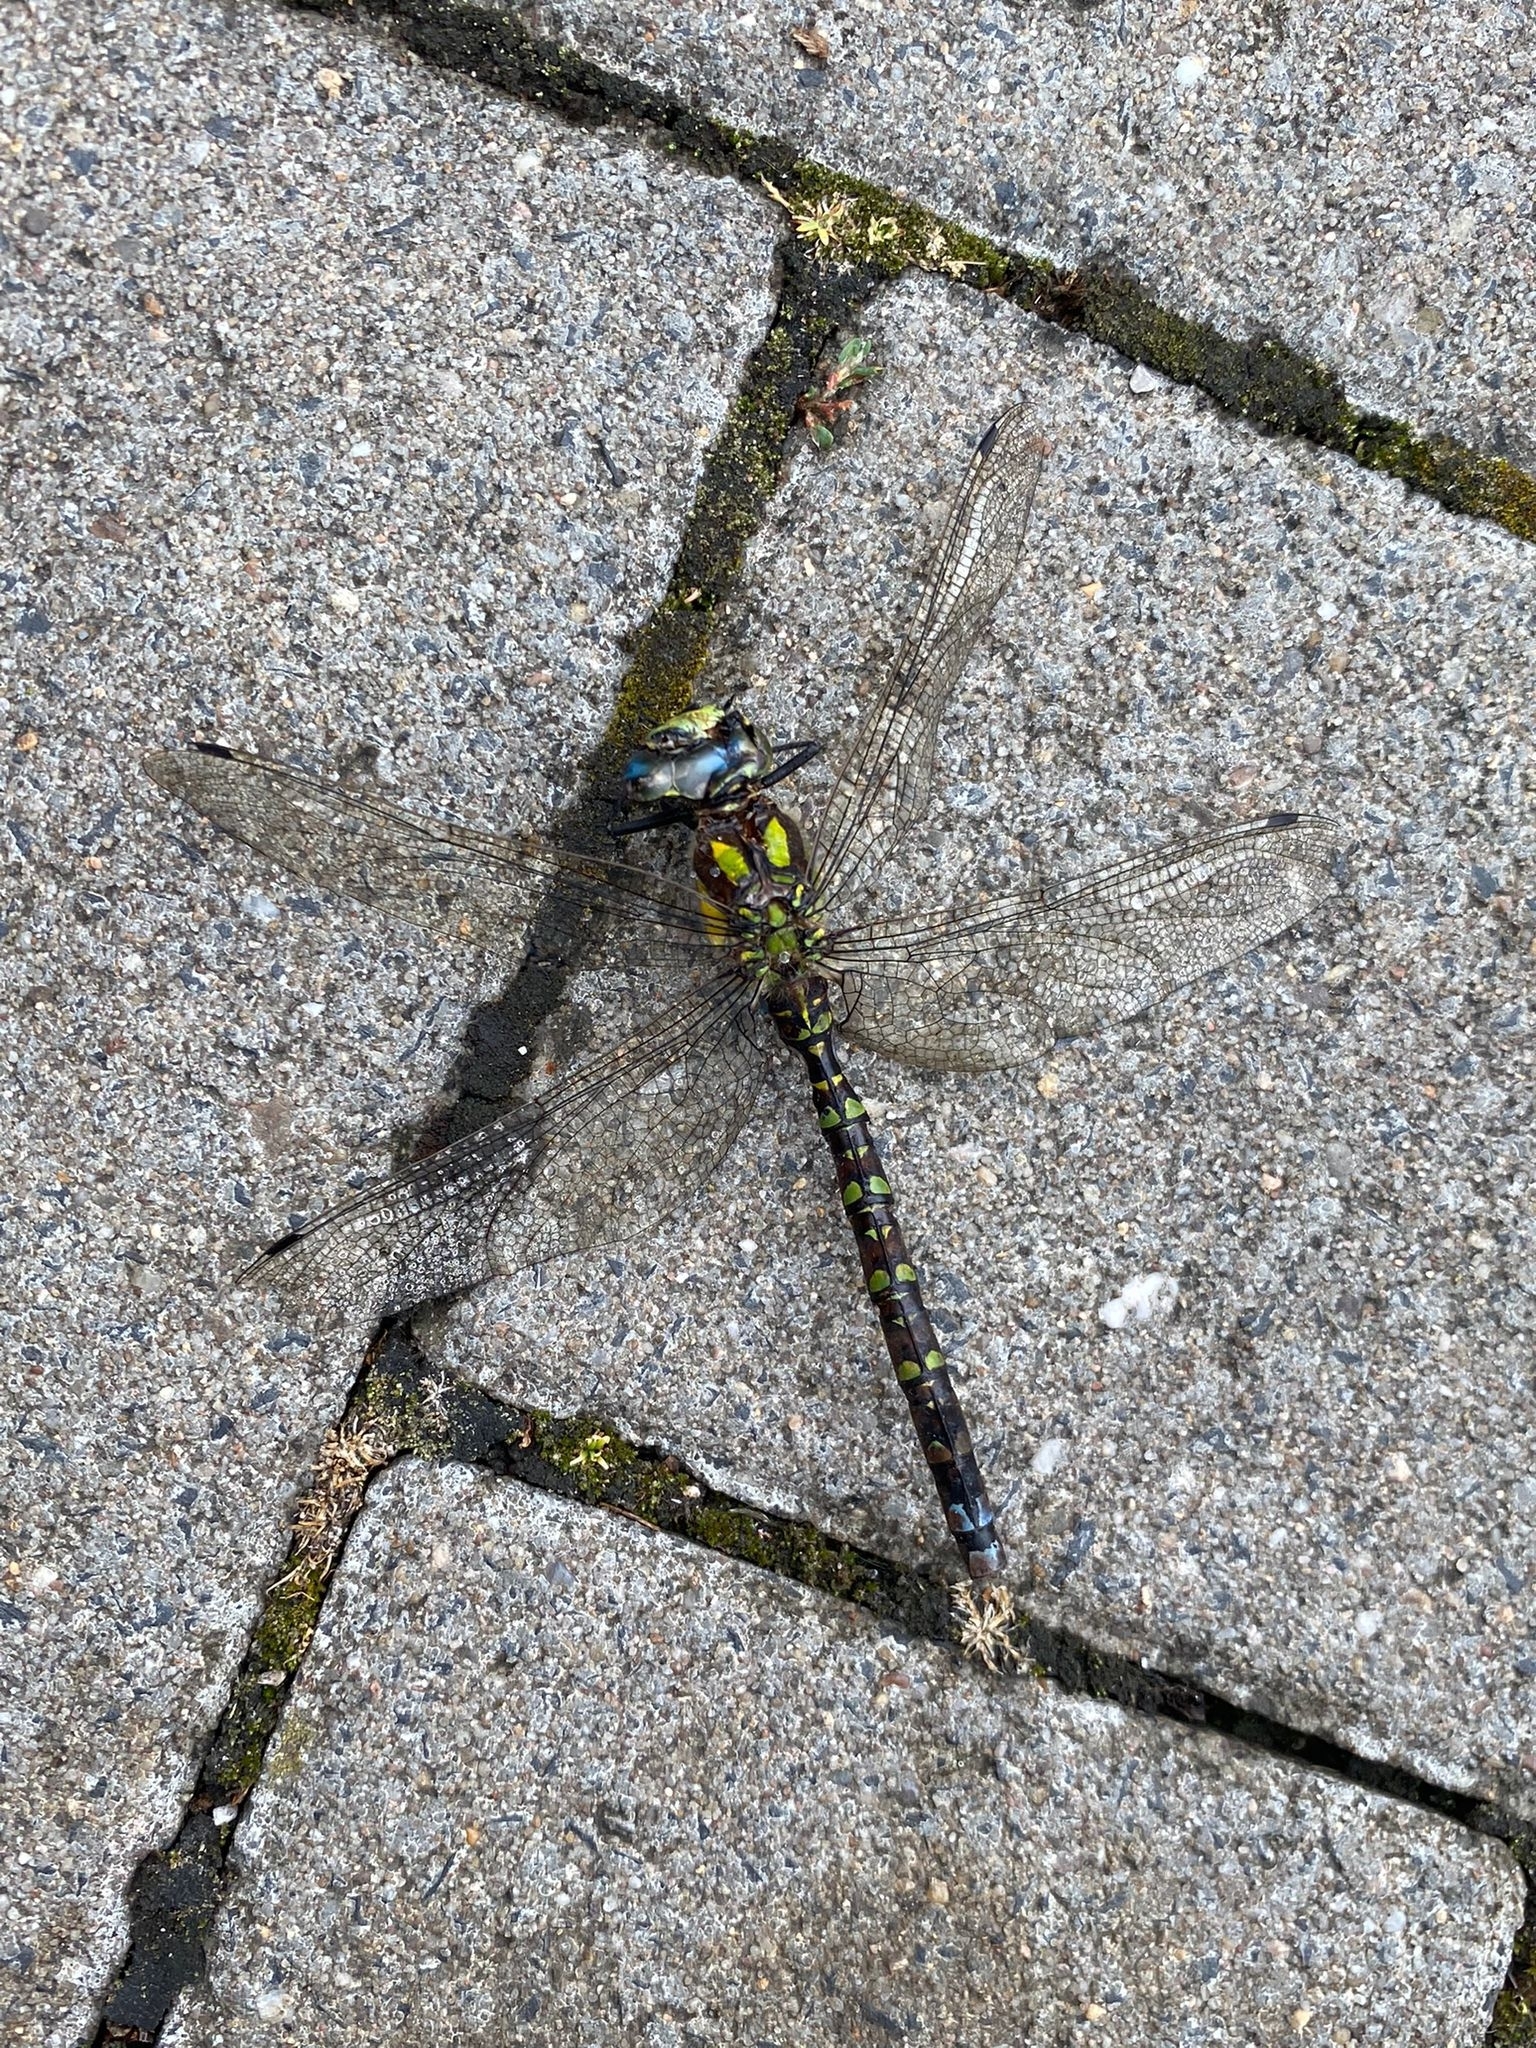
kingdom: Animalia
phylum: Arthropoda
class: Insecta
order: Odonata
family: Aeshnidae
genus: Aeshna
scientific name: Aeshna cyanea
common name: Southern hawker
